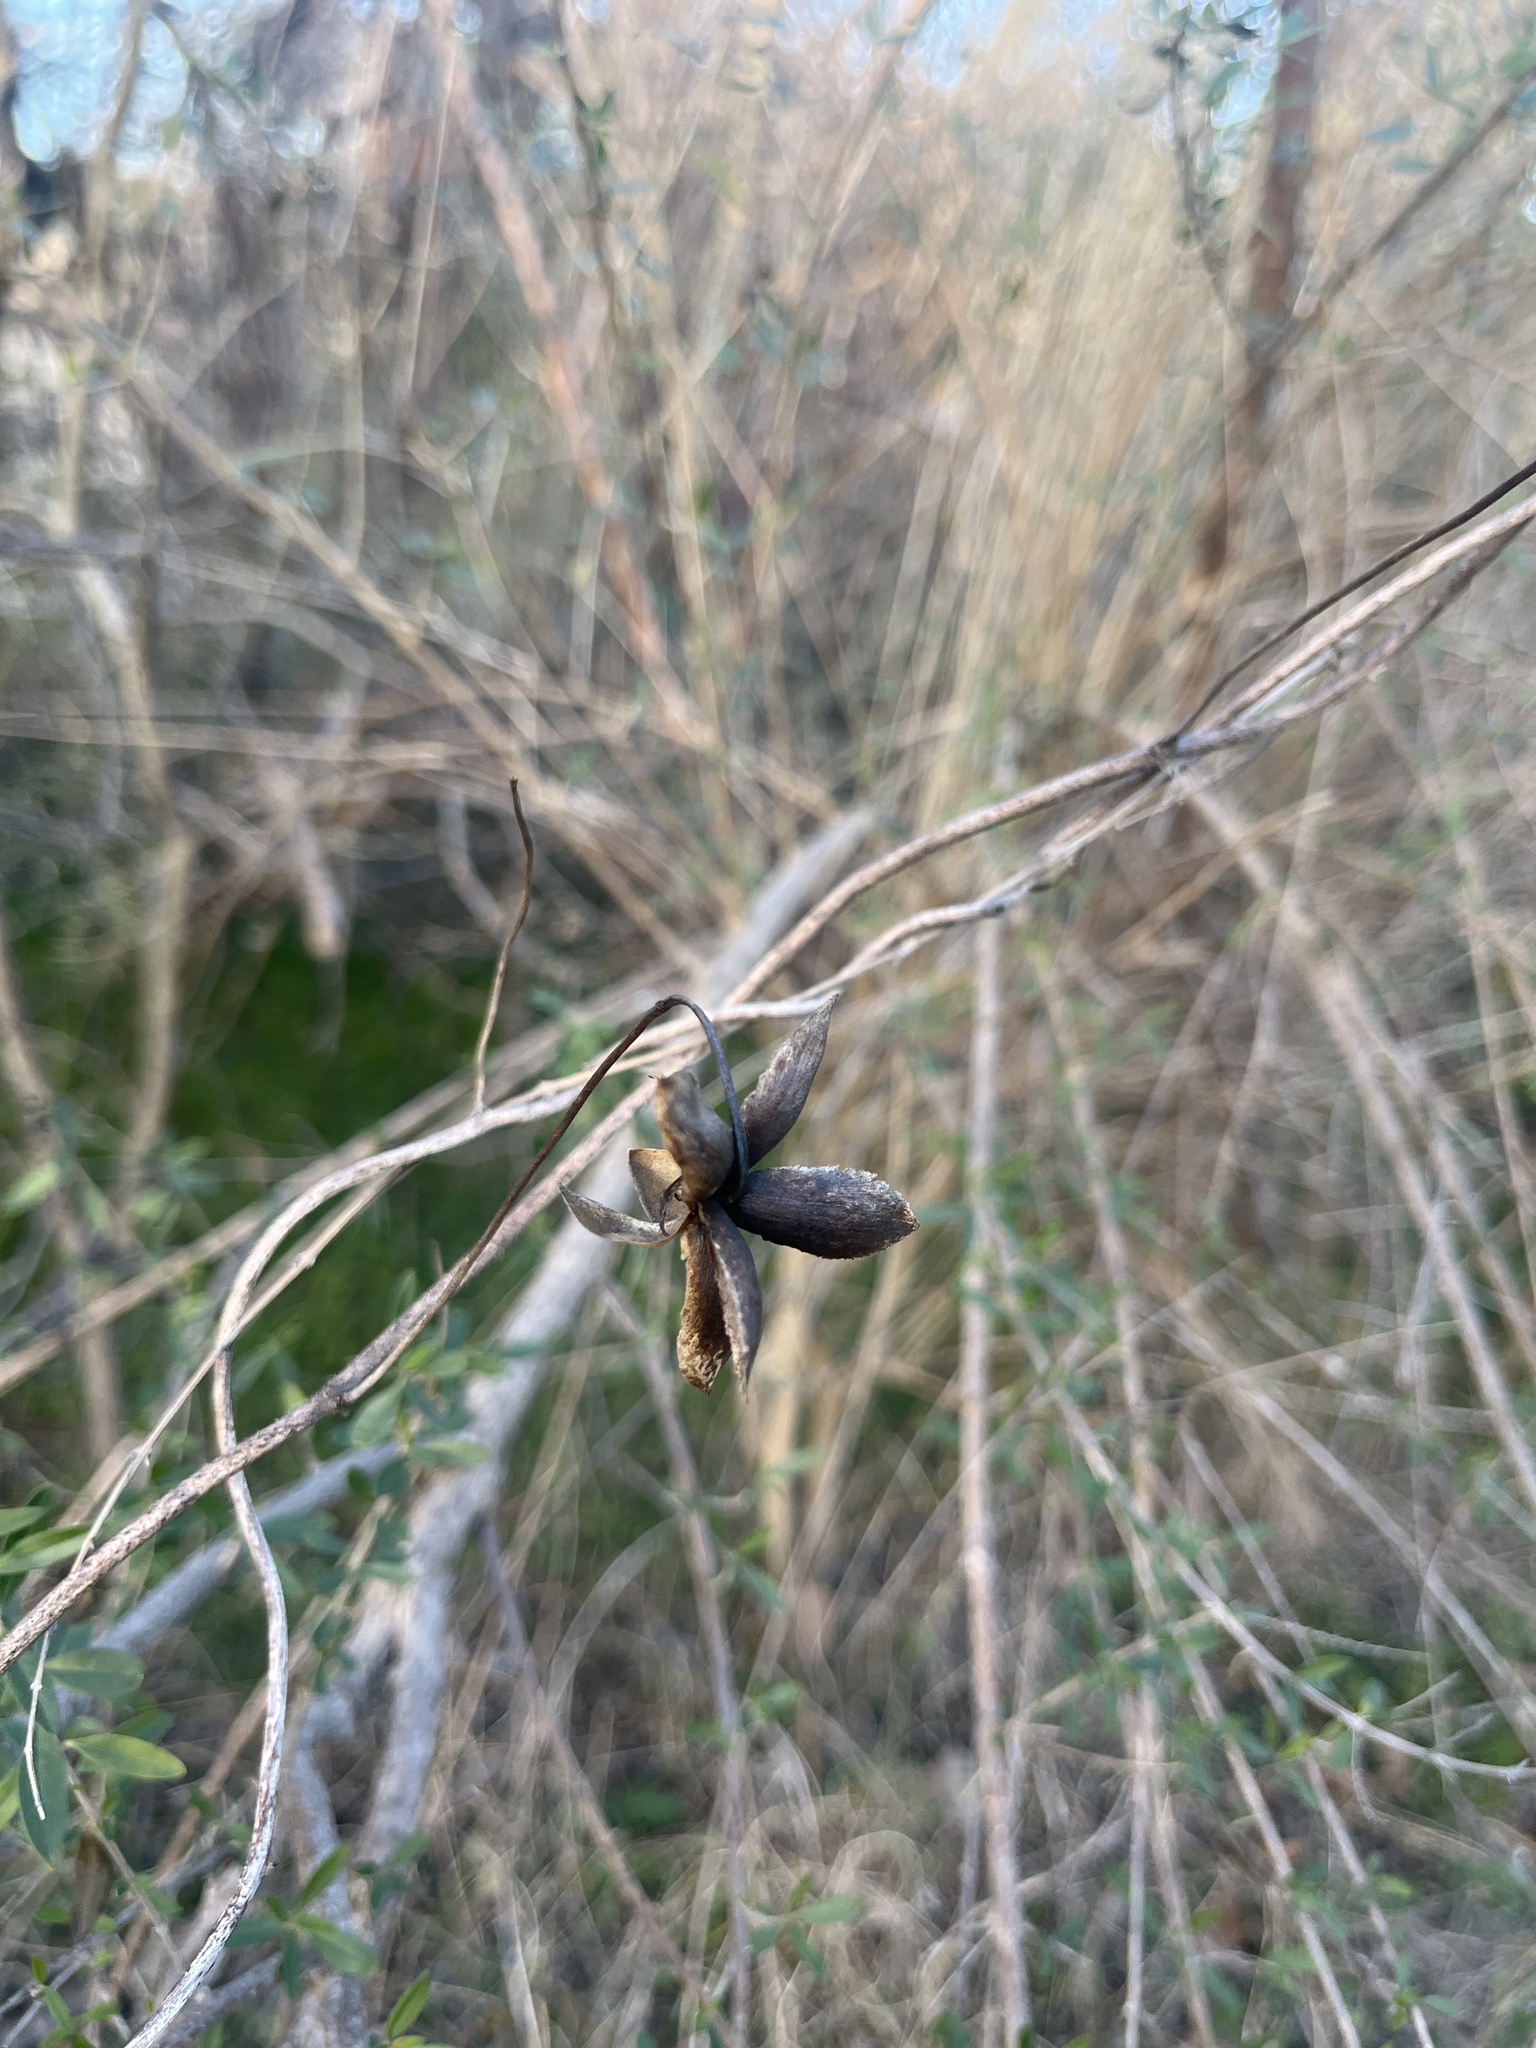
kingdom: Plantae
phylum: Tracheophyta
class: Magnoliopsida
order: Solanales
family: Convolvulaceae
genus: Distimake
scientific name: Distimake dissectus
